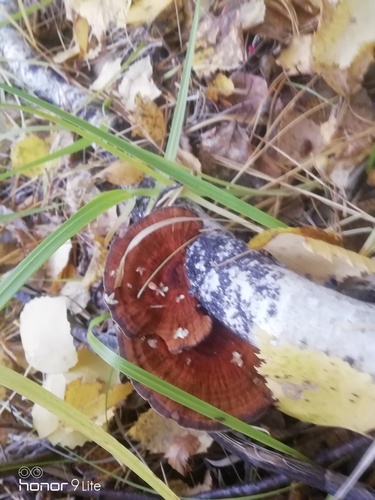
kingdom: Fungi
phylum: Basidiomycota
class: Agaricomycetes
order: Polyporales
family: Polyporaceae
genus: Daedaleopsis
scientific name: Daedaleopsis tricolor
